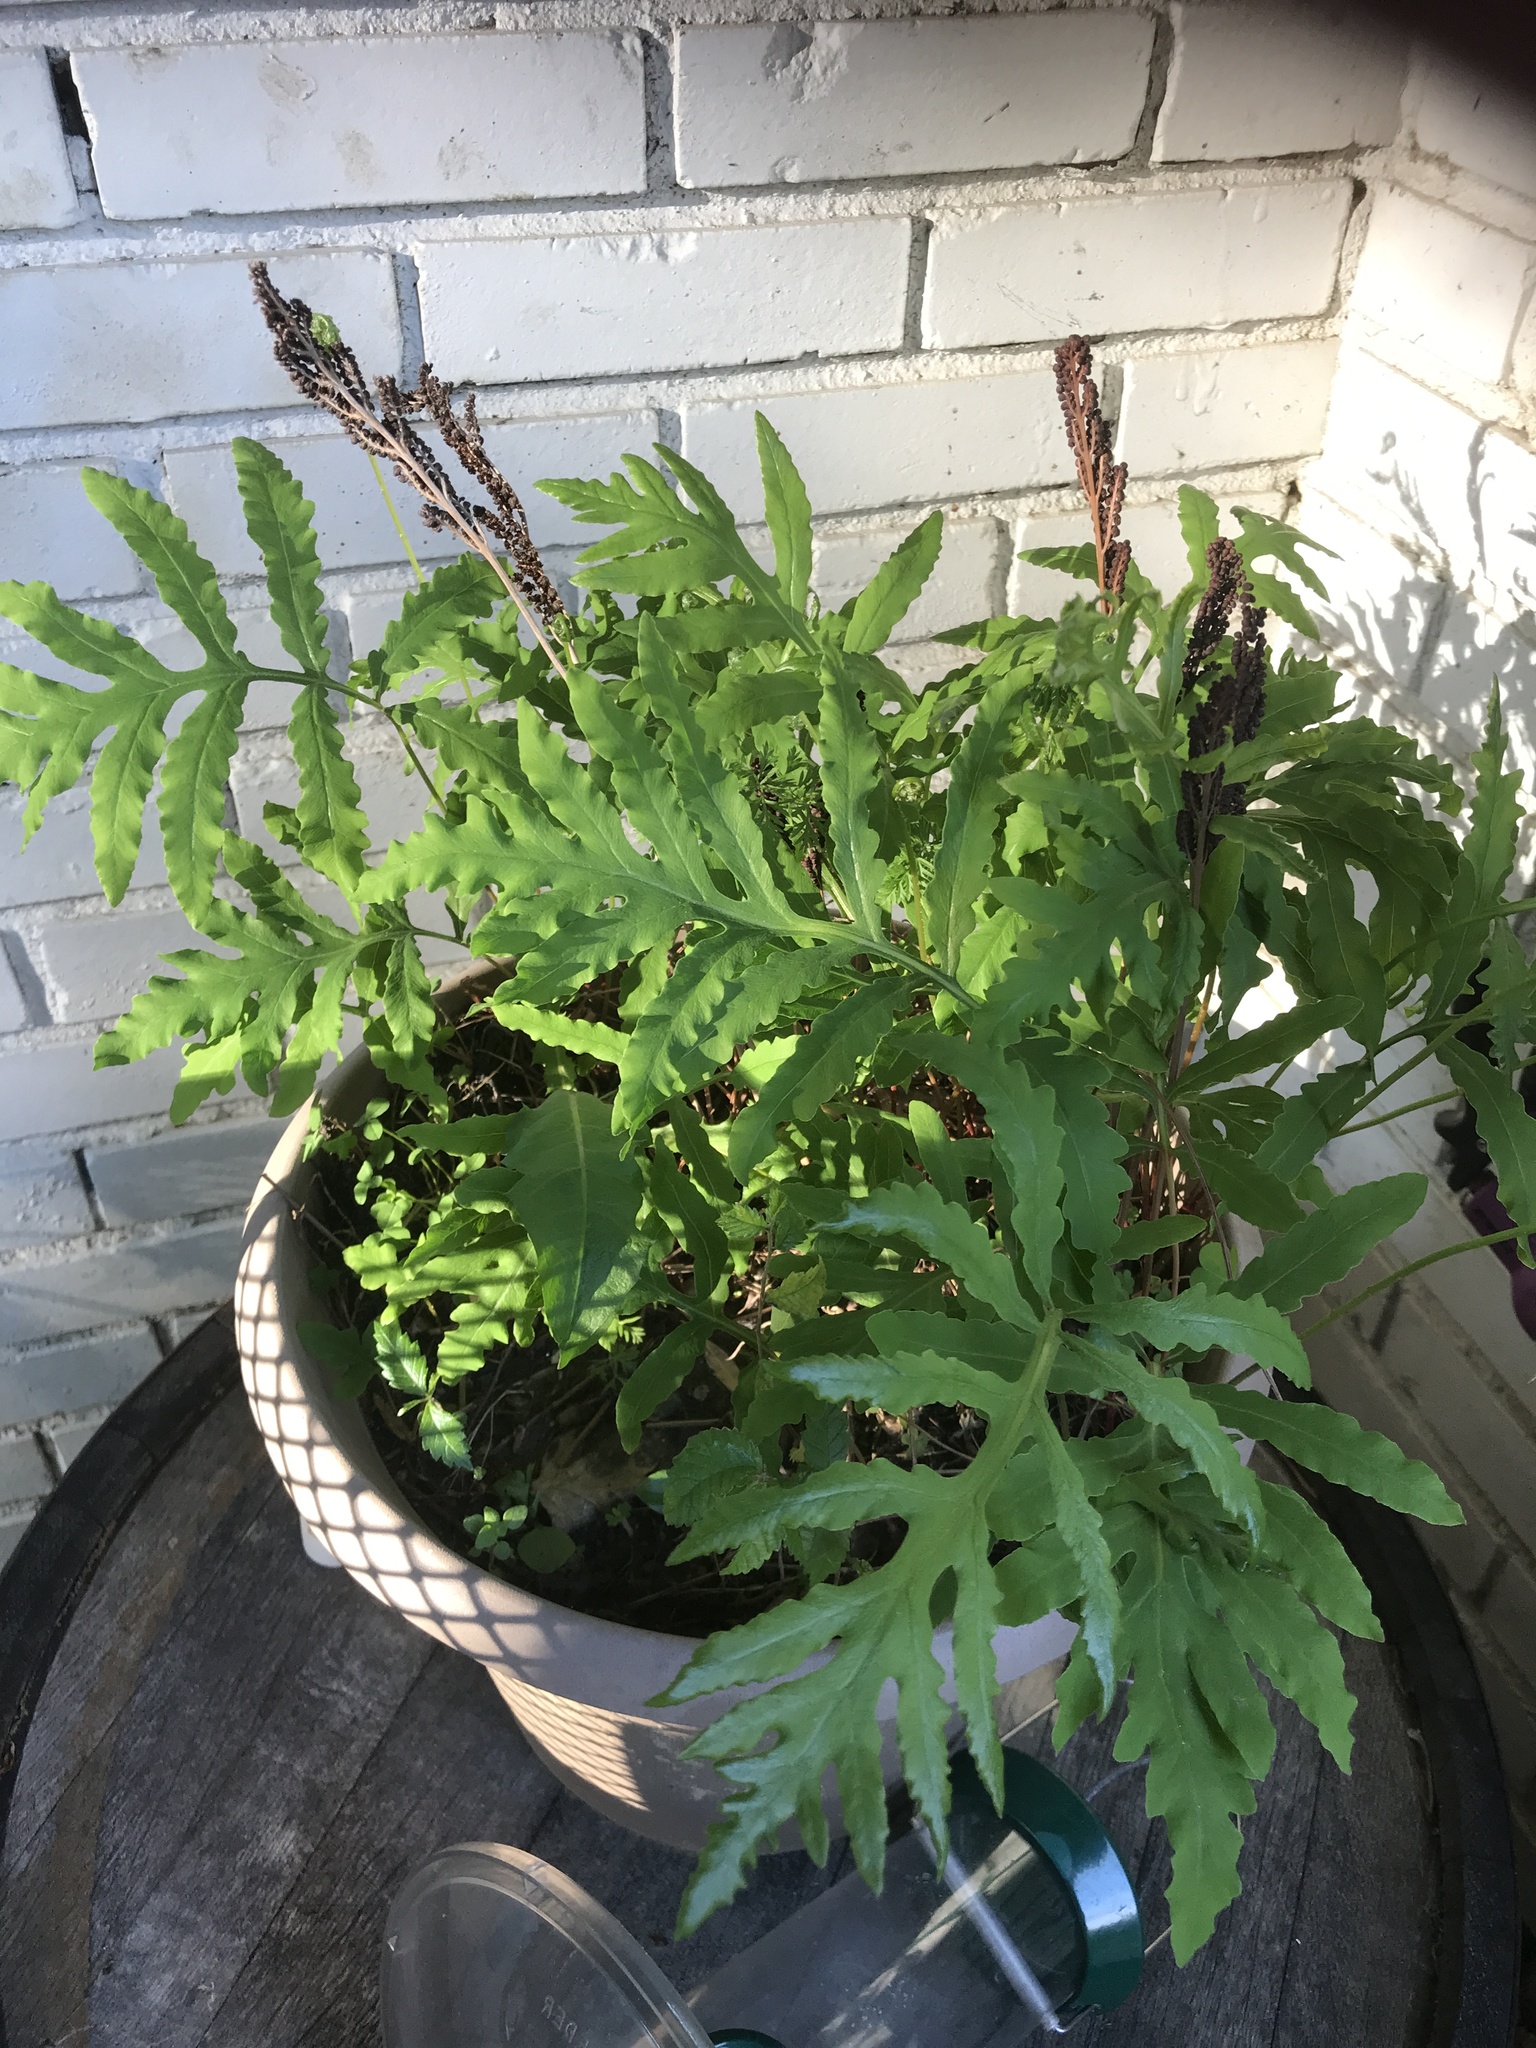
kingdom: Plantae
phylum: Tracheophyta
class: Polypodiopsida
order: Polypodiales
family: Onocleaceae
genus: Onoclea
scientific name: Onoclea sensibilis
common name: Sensitive fern
